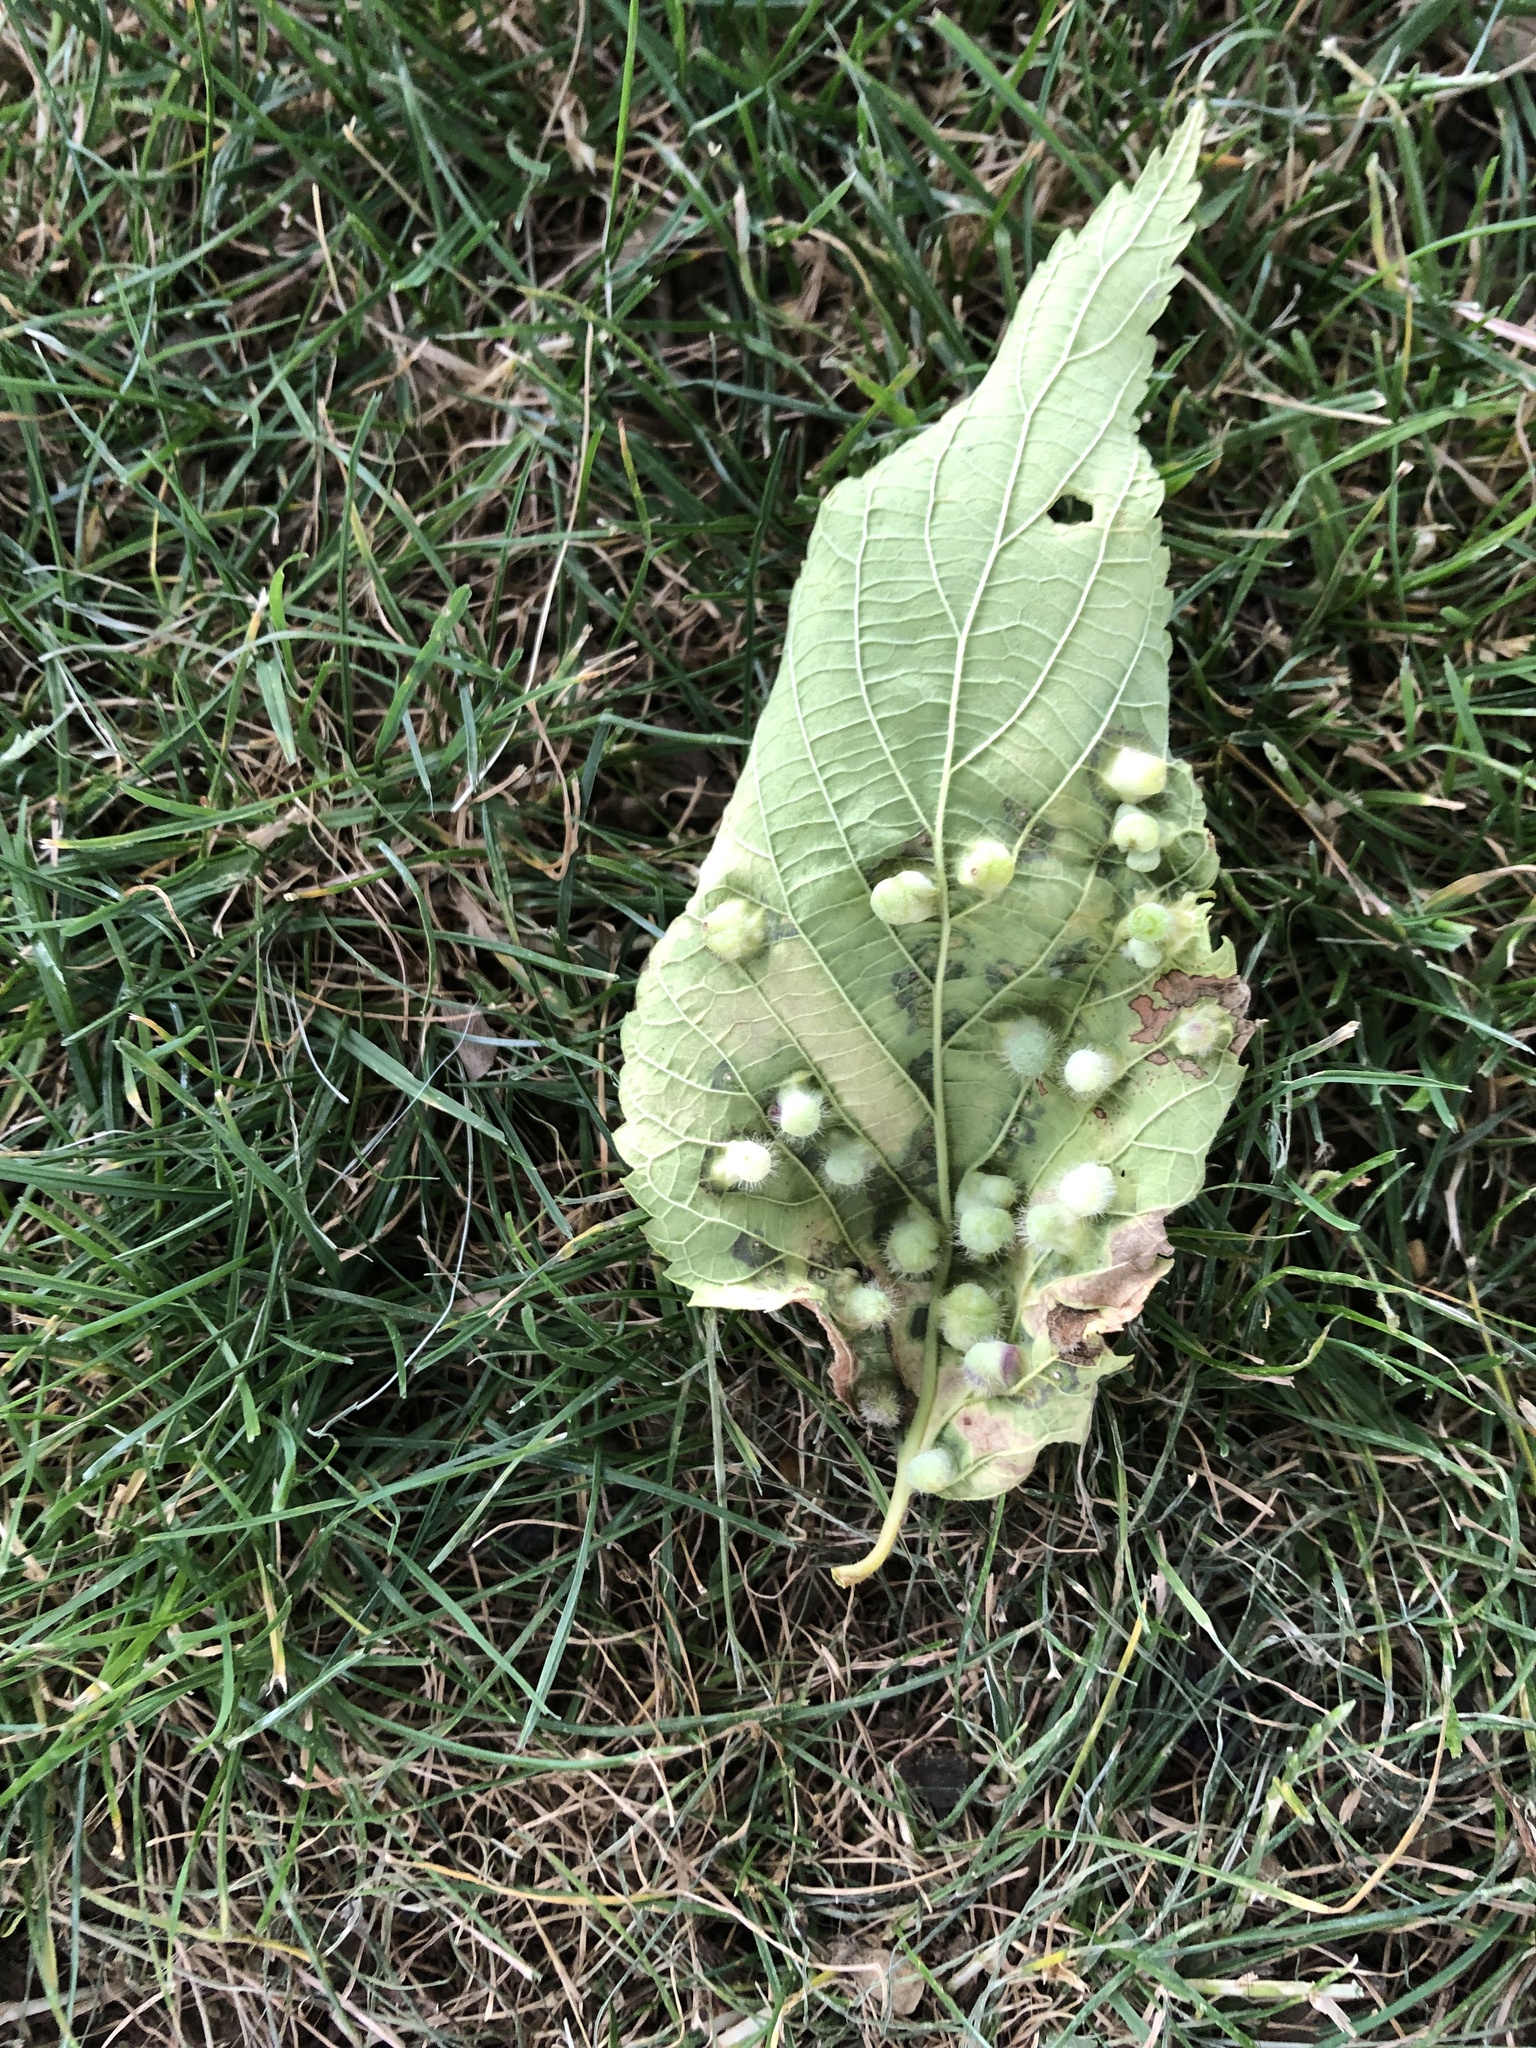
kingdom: Animalia
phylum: Arthropoda
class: Insecta
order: Hemiptera
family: Aphalaridae
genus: Pachypsylla
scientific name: Pachypsylla celtidismamma
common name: Hackberry nipplegall psyllid
